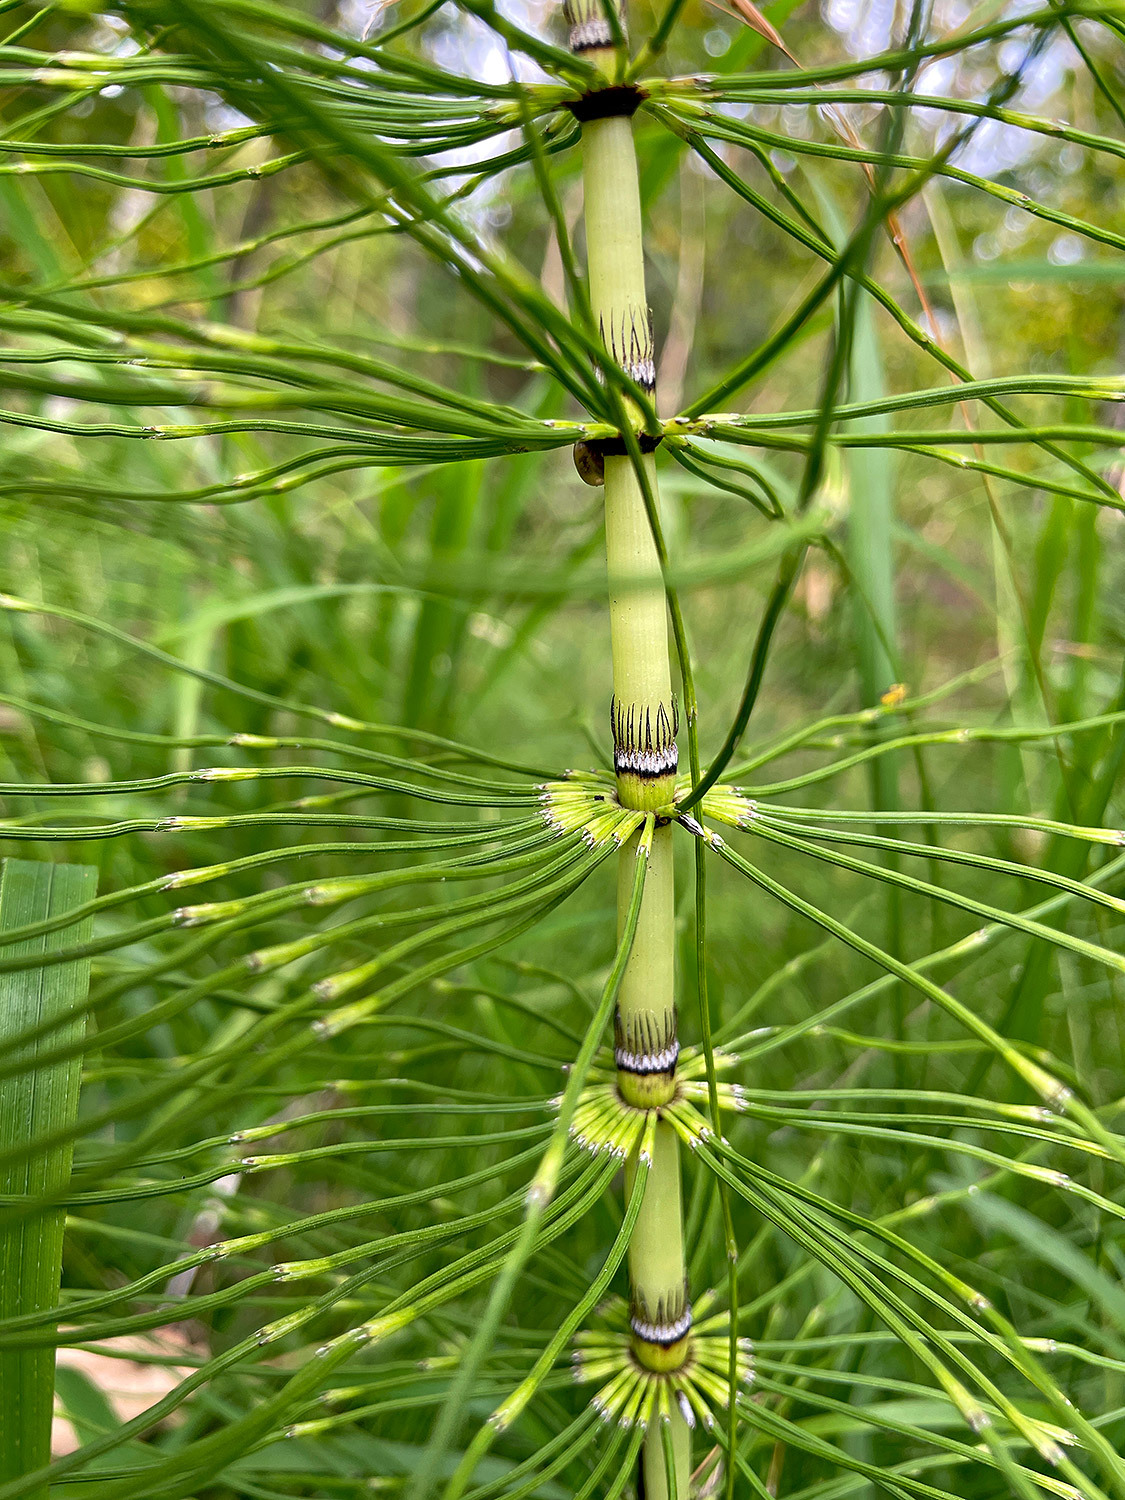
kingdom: Plantae
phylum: Tracheophyta
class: Polypodiopsida
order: Equisetales
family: Equisetaceae
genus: Equisetum
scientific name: Equisetum telmateia
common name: Great horsetail
